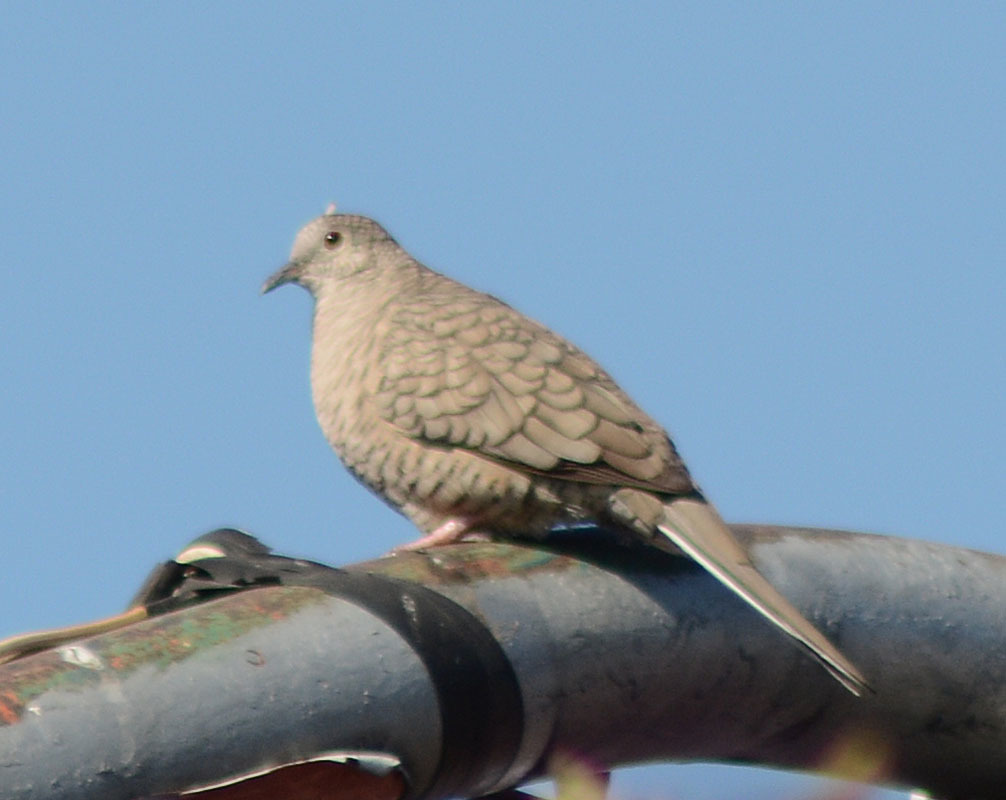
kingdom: Animalia
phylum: Chordata
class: Aves
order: Columbiformes
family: Columbidae
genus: Columbina
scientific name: Columbina inca
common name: Inca dove
